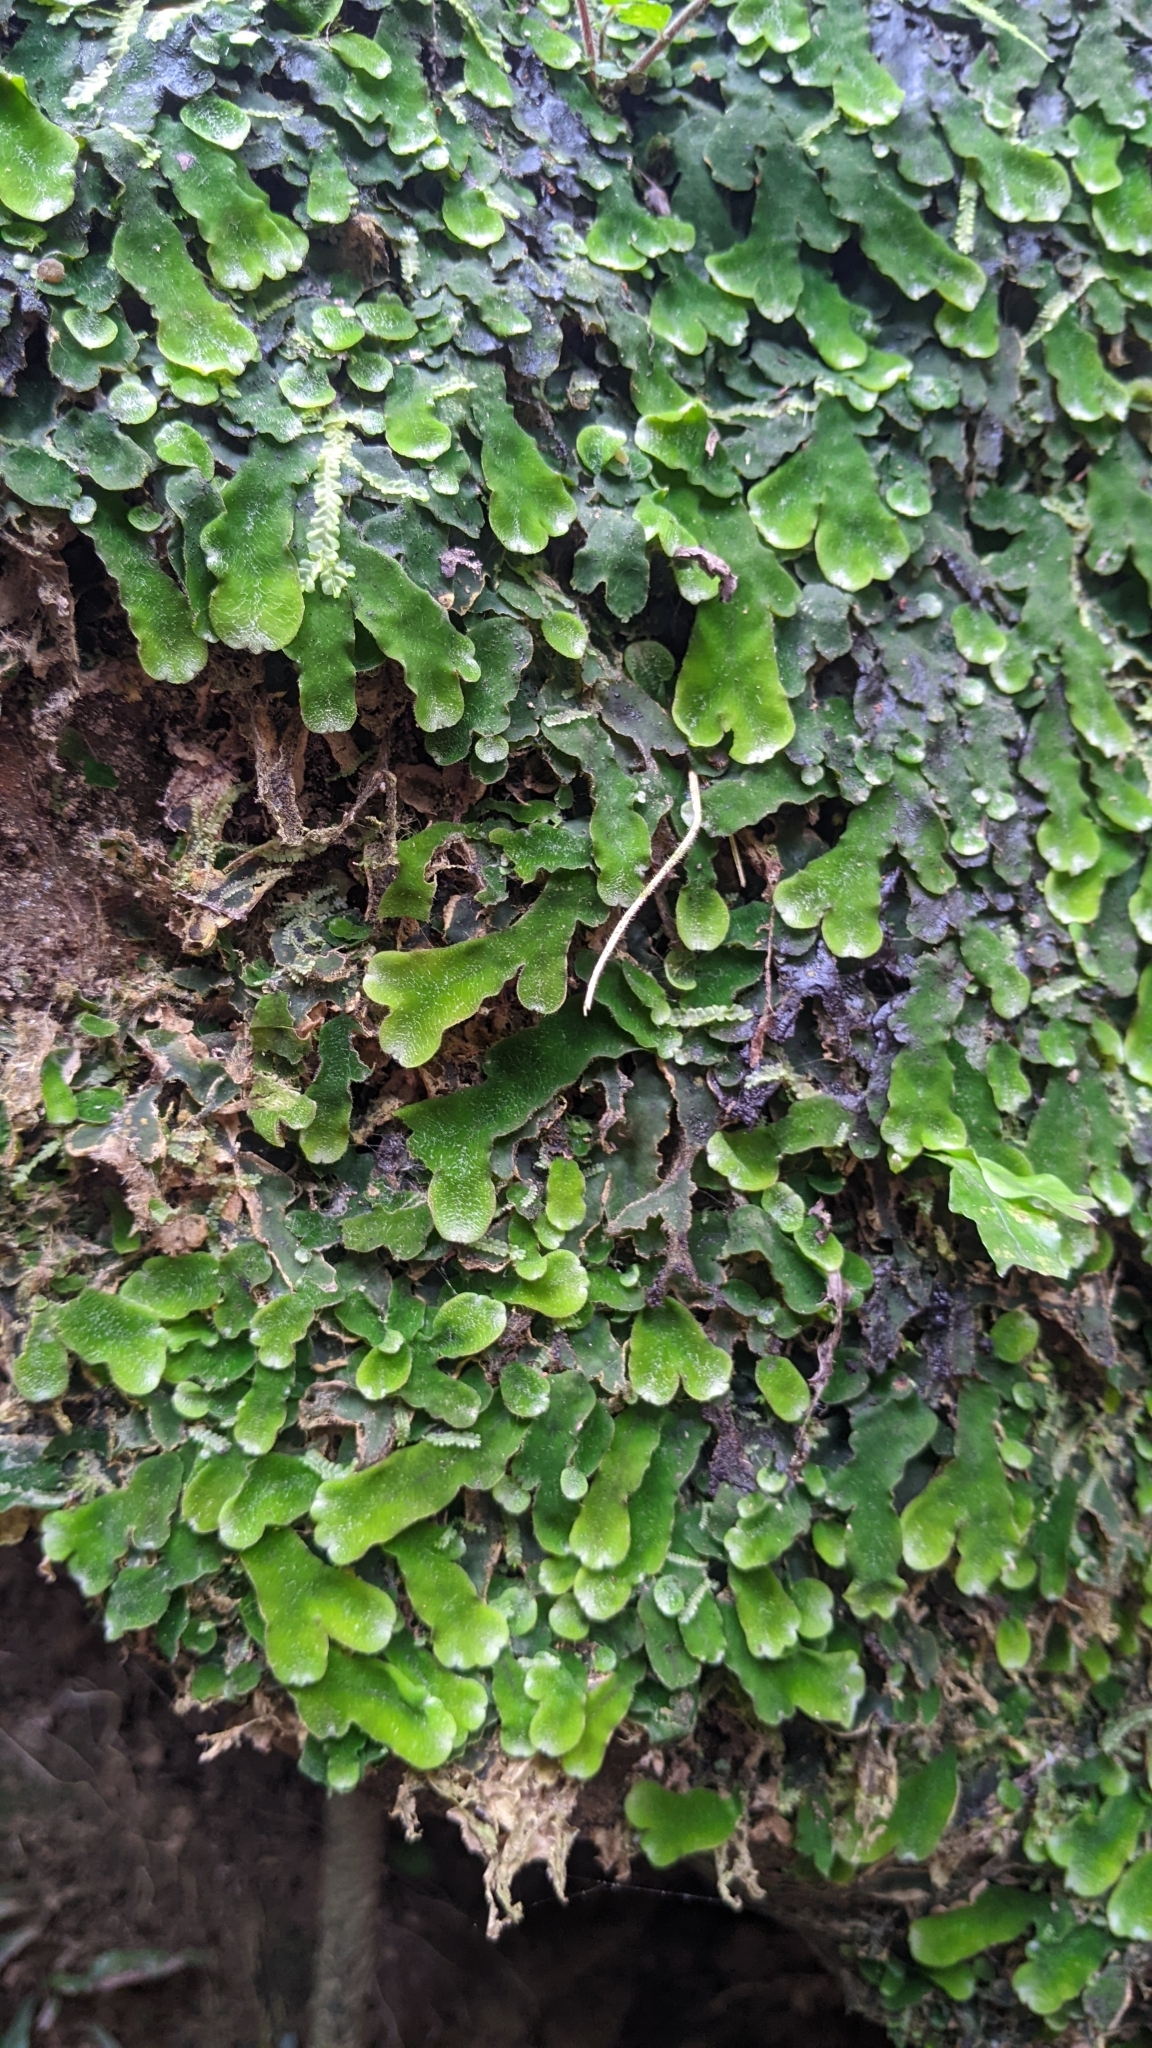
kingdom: Plantae
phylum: Marchantiophyta
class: Marchantiopsida
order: Marchantiales
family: Dumortieraceae
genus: Dumortiera
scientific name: Dumortiera hirsuta
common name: Dumortier's liverwort
